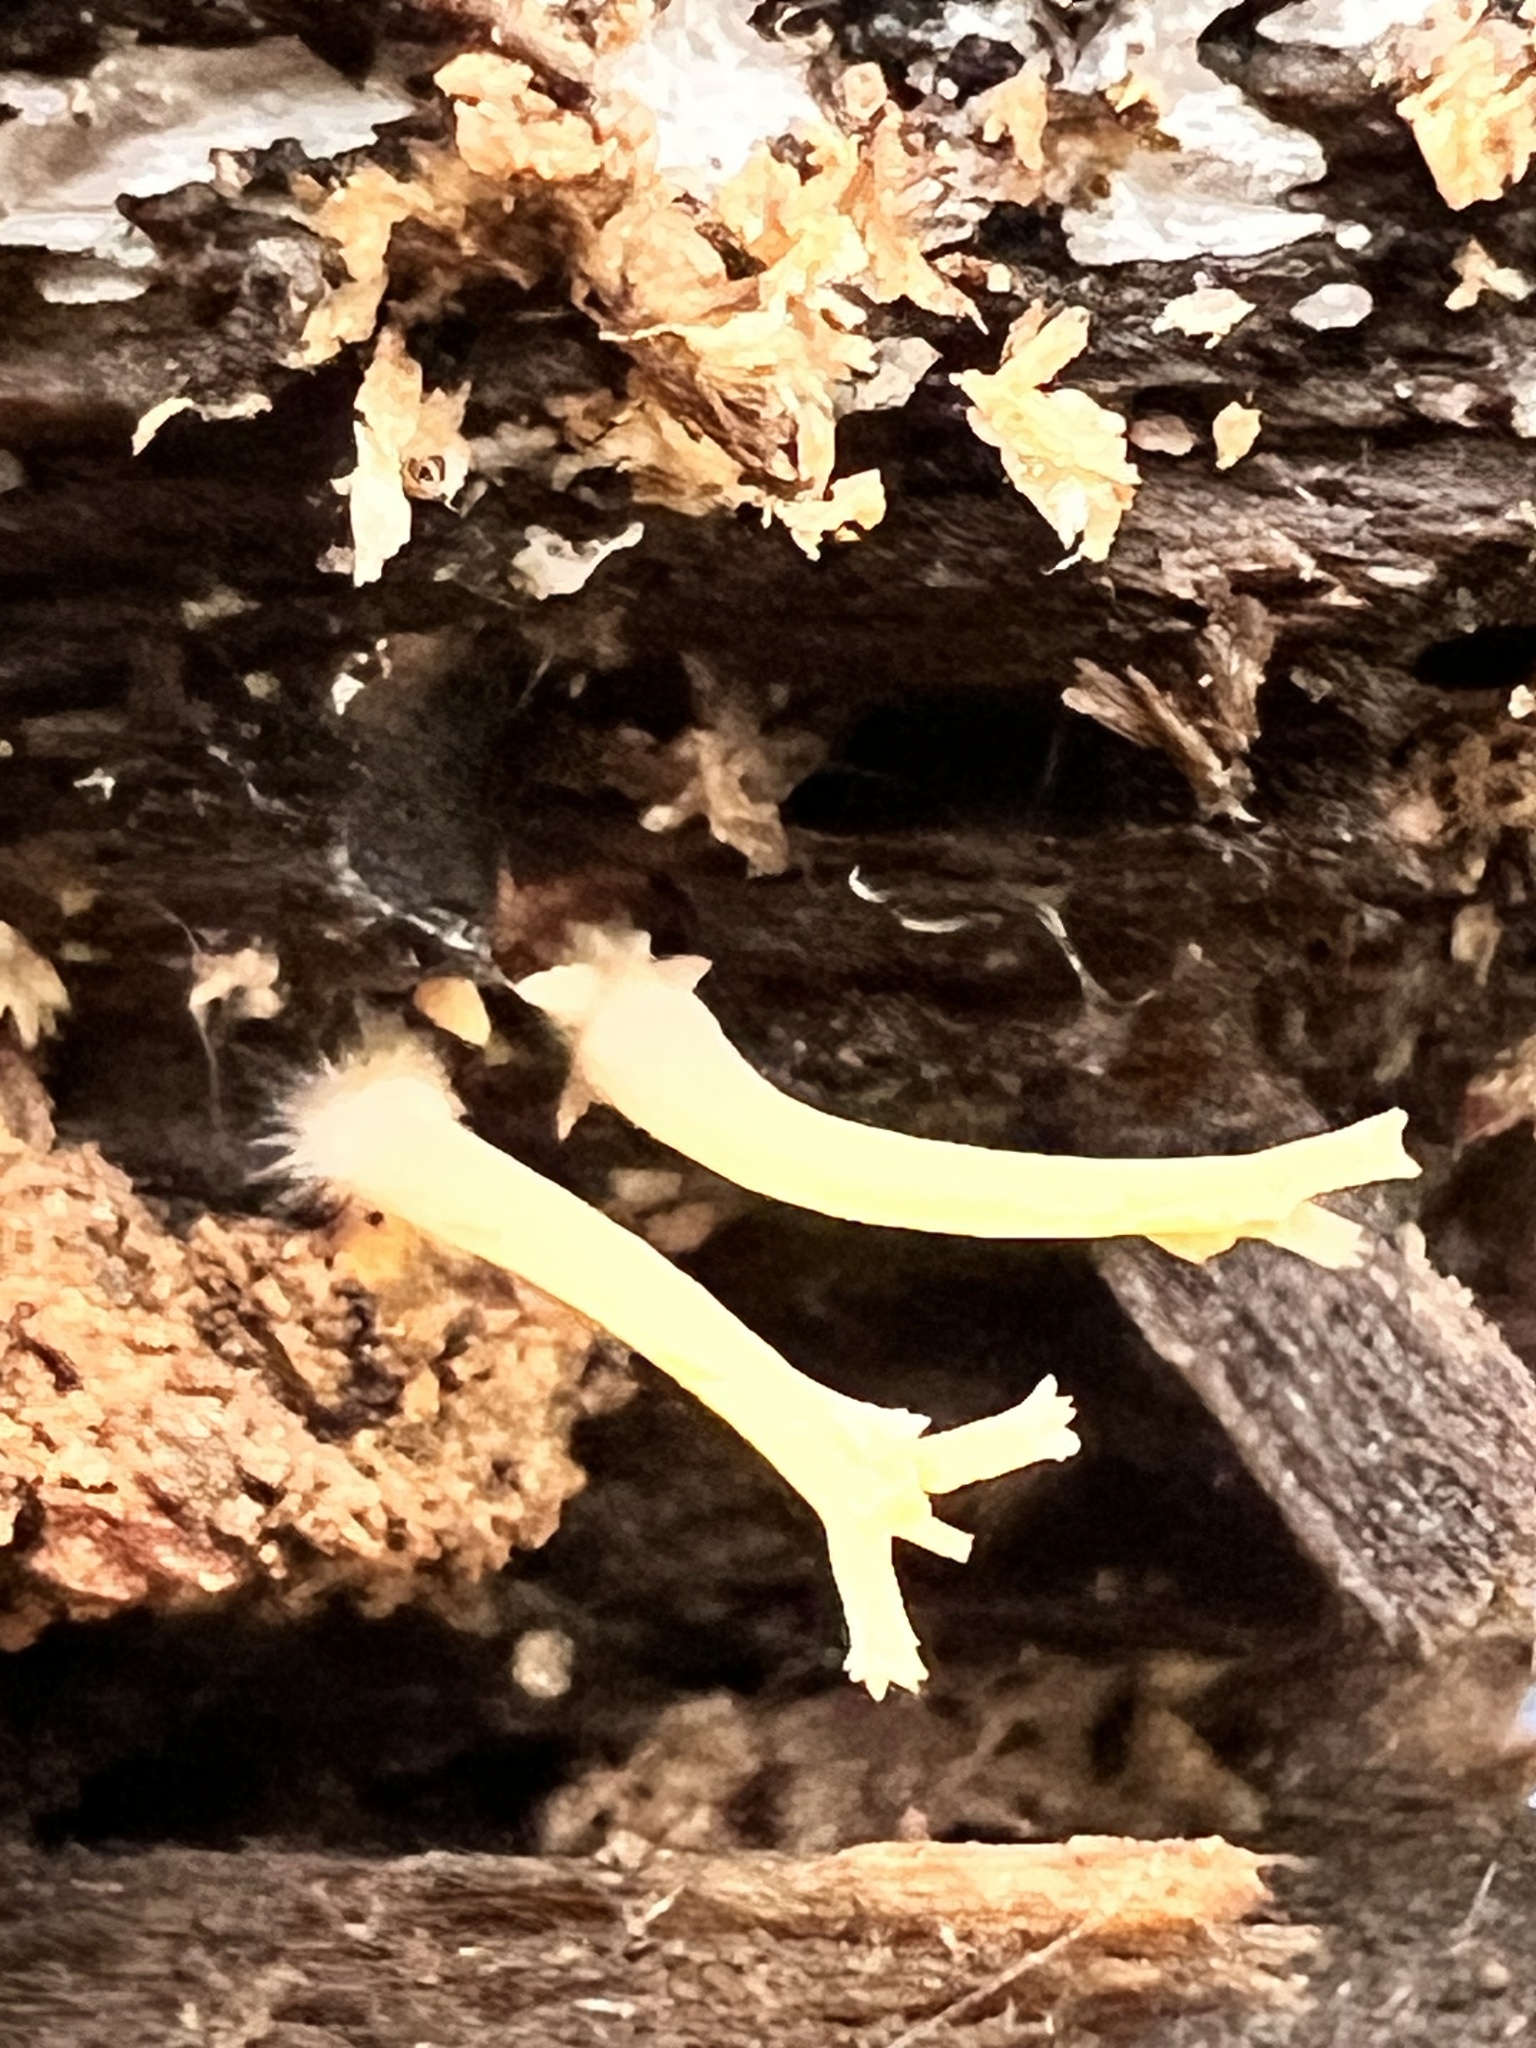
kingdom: Fungi
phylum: Basidiomycota
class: Agaricomycetes
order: Russulales
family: Auriscalpiaceae
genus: Artomyces
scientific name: Artomyces pyxidatus
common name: Crown-tipped coral fungus
